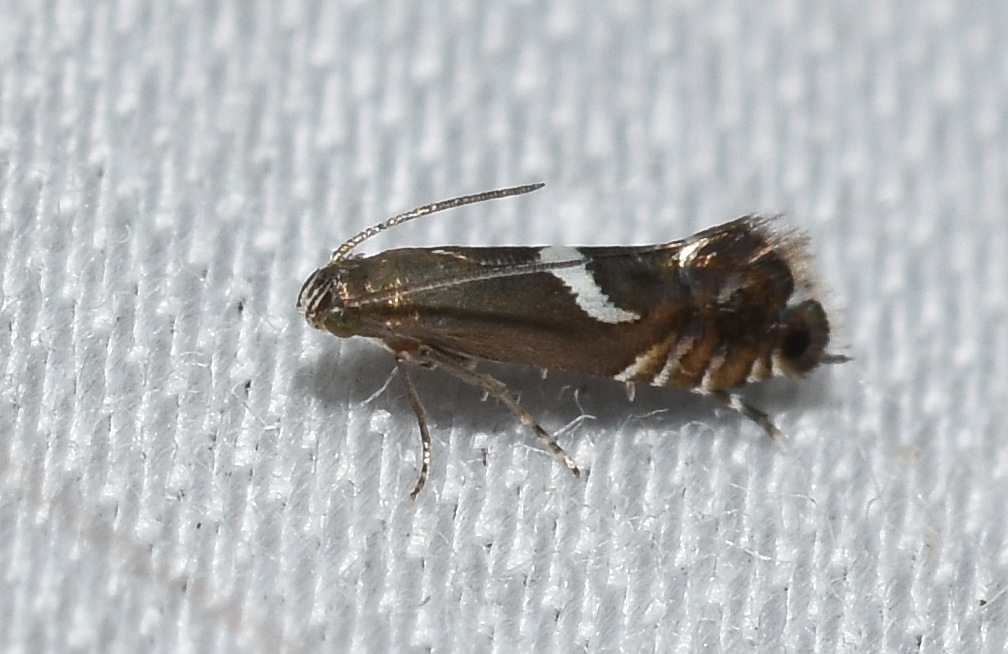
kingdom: Animalia
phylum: Arthropoda
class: Insecta
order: Lepidoptera
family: Glyphipterigidae
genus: Glyphipterix
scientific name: Glyphipterix Diploschizia impigritella
